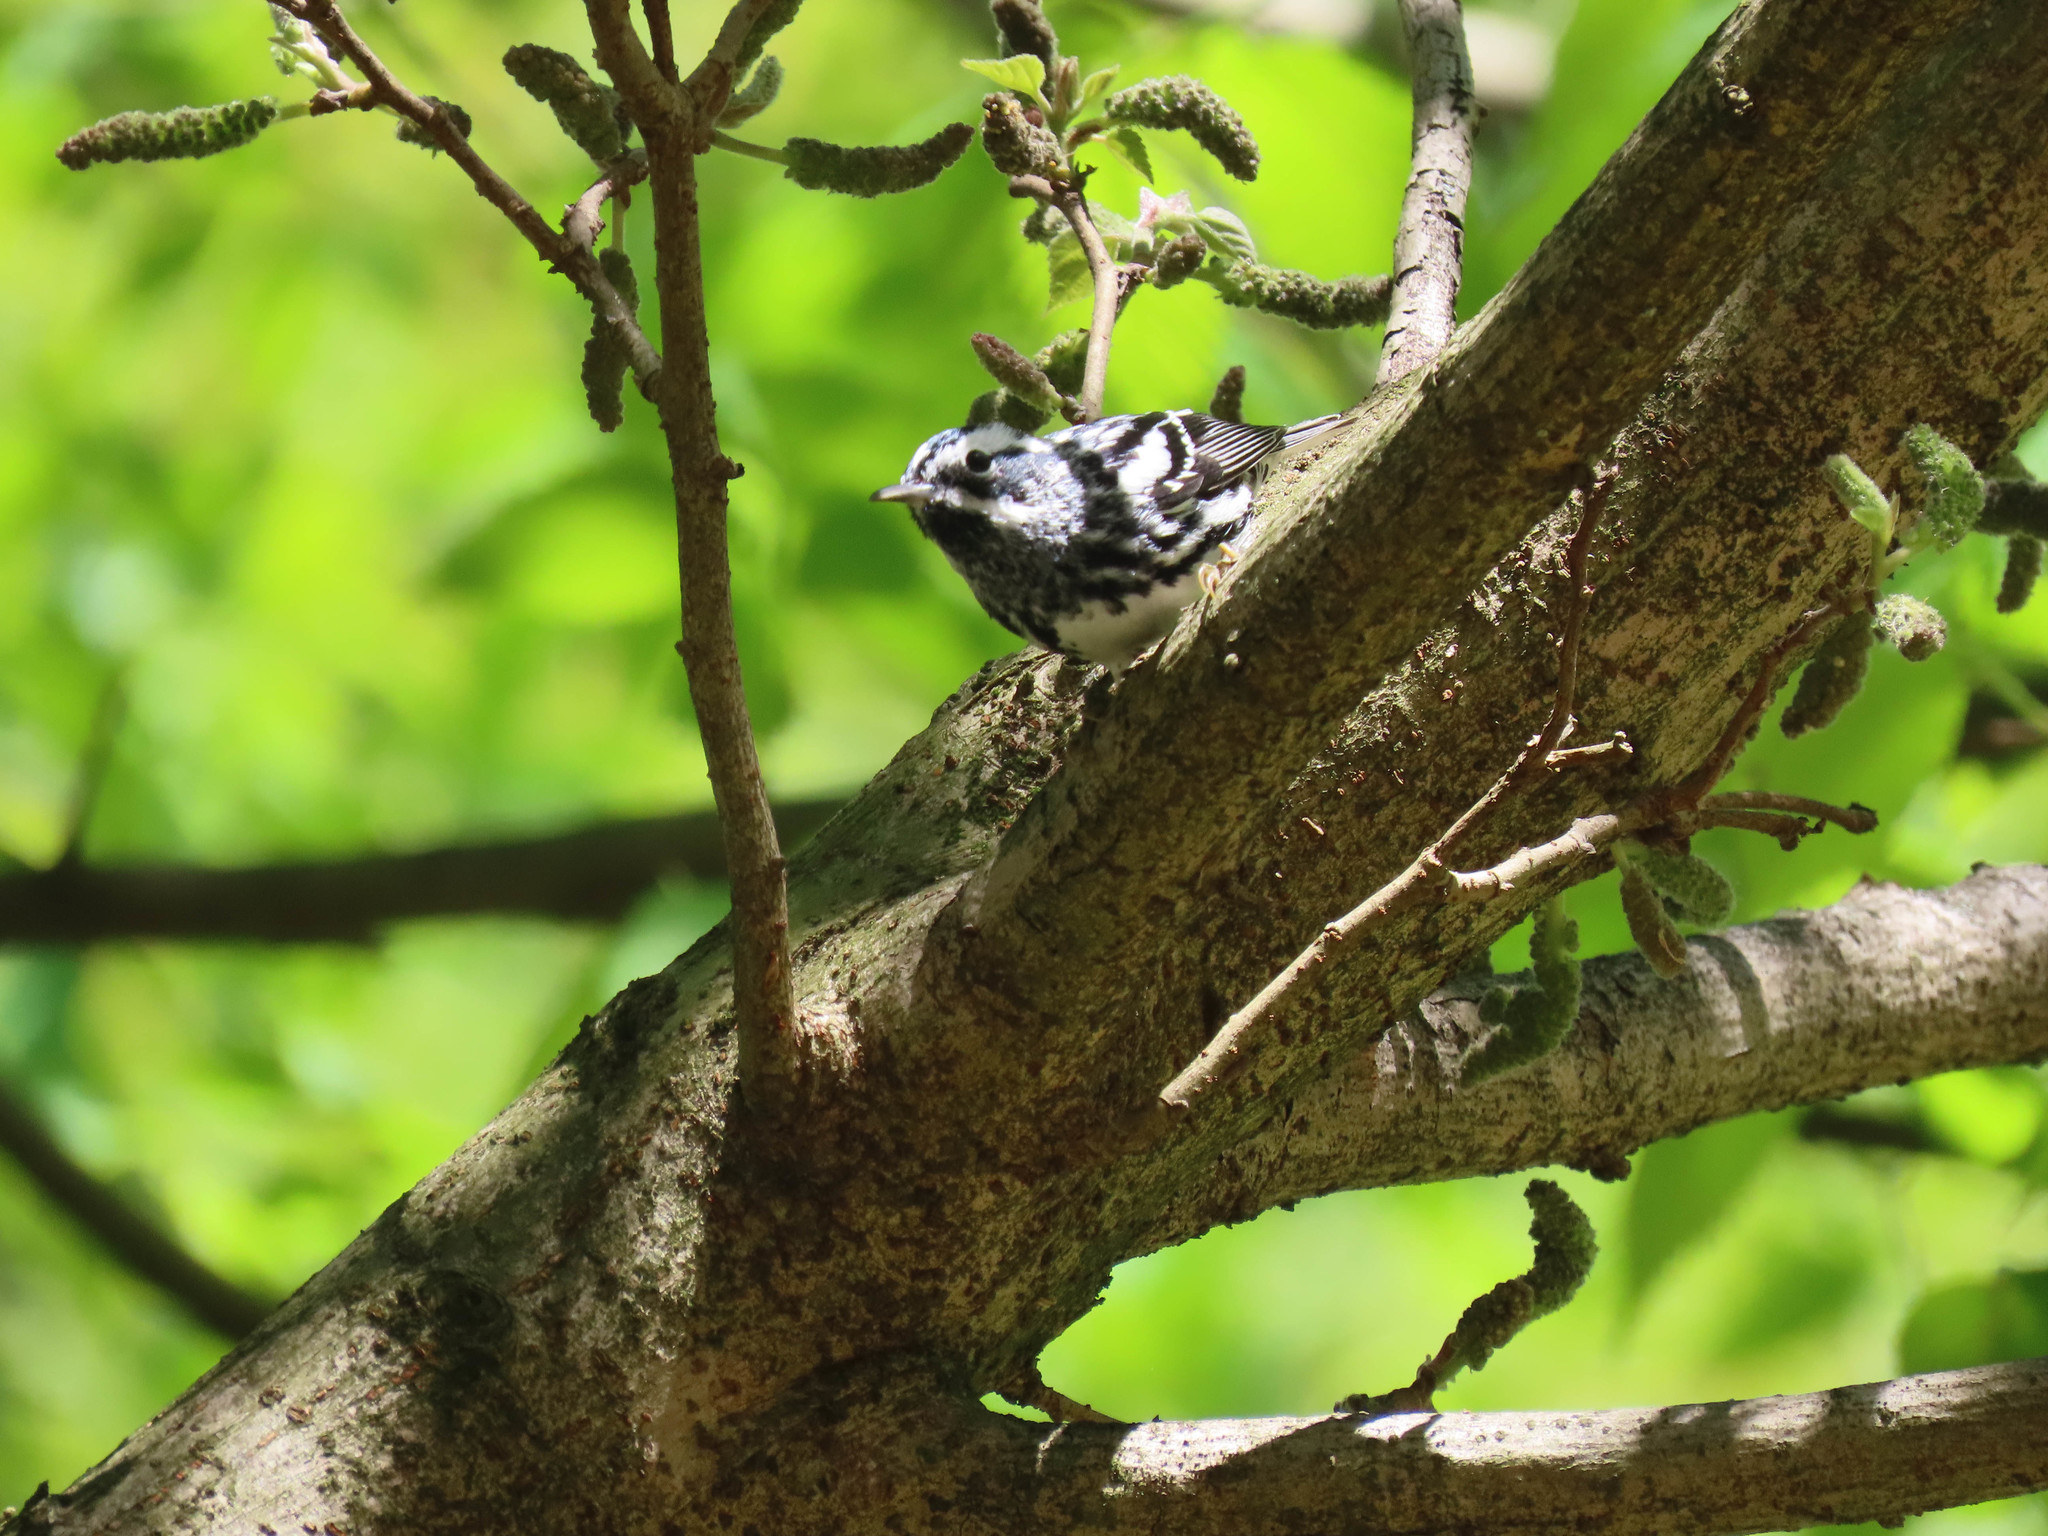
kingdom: Animalia
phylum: Chordata
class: Aves
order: Passeriformes
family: Parulidae
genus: Mniotilta
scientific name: Mniotilta varia
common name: Black-and-white warbler
